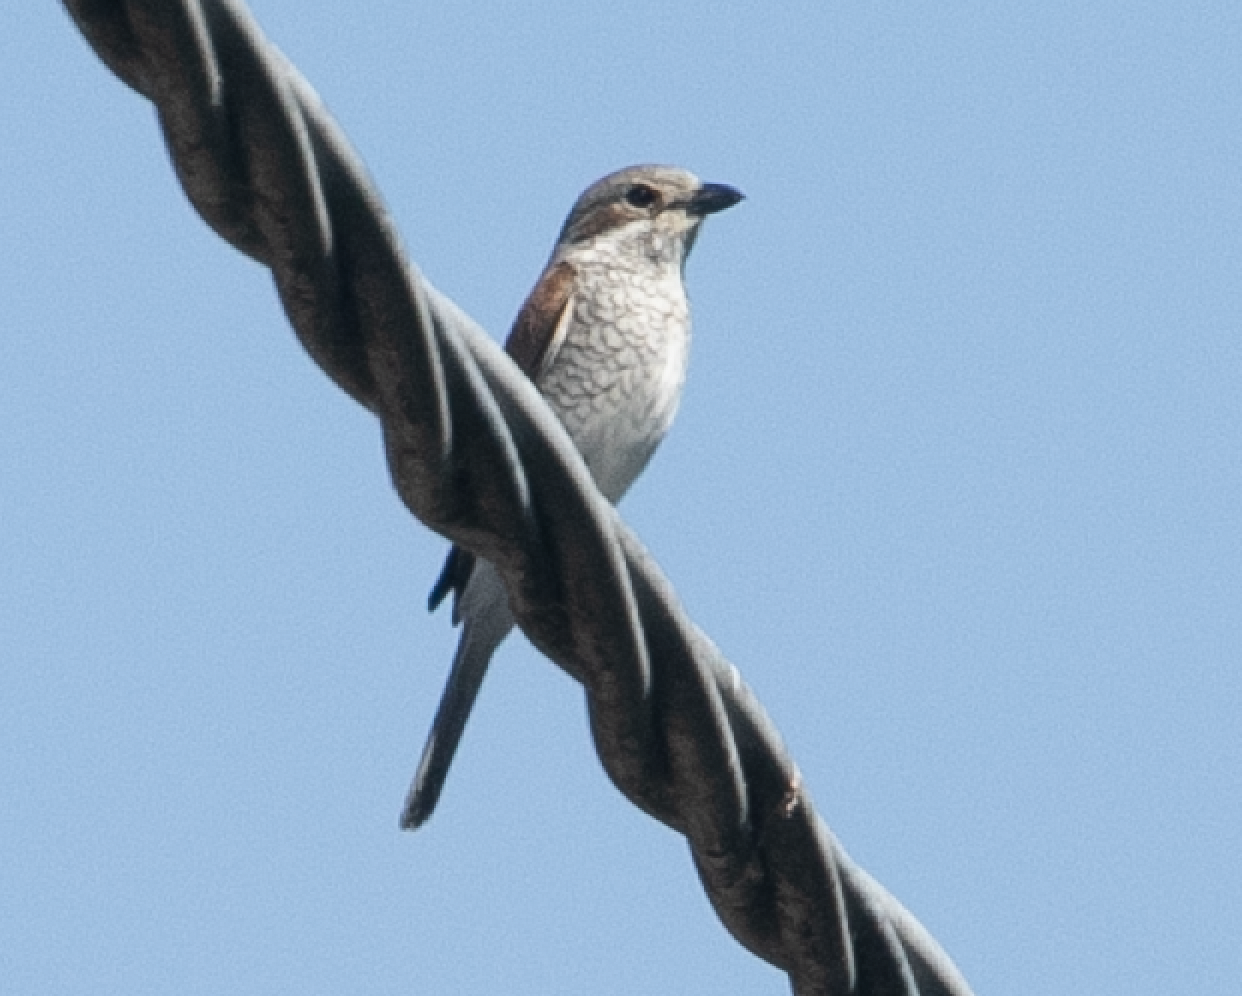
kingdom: Animalia
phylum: Chordata
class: Aves
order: Passeriformes
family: Laniidae
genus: Lanius
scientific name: Lanius collurio
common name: Red-backed shrike
